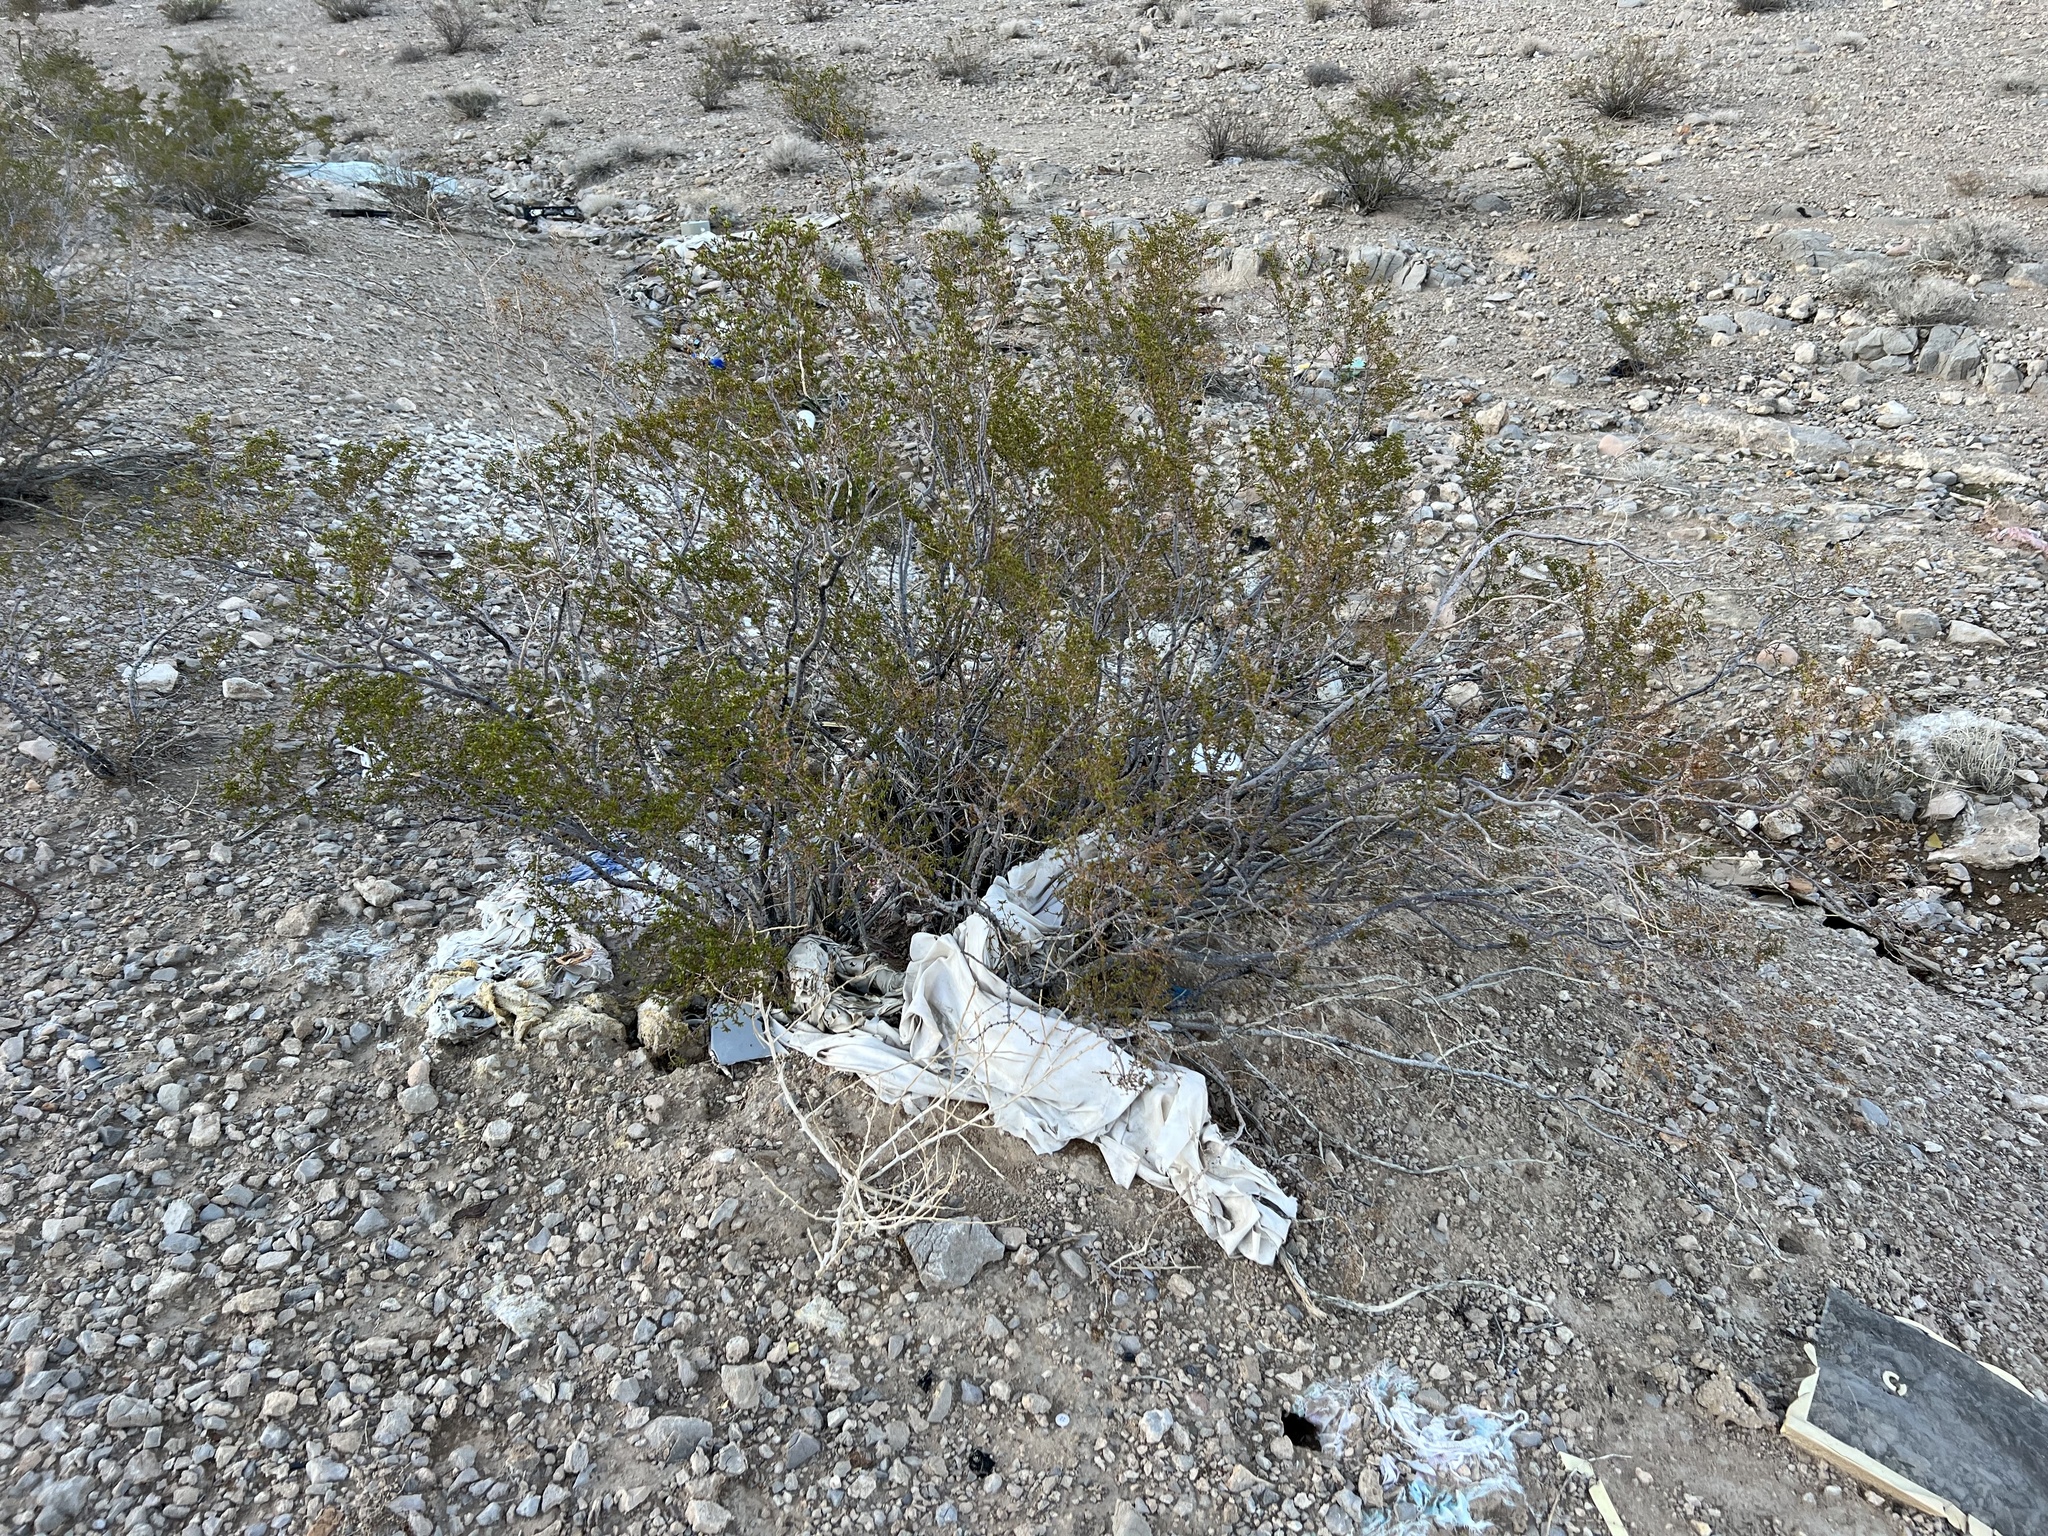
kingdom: Plantae
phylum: Tracheophyta
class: Magnoliopsida
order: Zygophyllales
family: Zygophyllaceae
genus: Larrea
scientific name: Larrea tridentata
